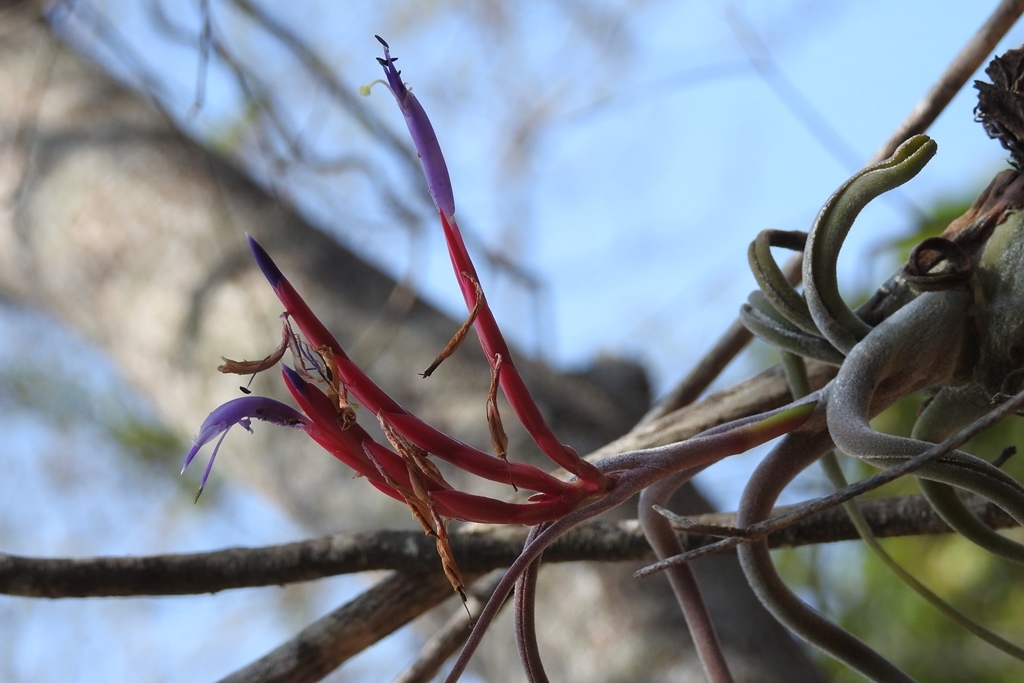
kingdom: Plantae
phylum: Tracheophyta
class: Liliopsida
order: Poales
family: Bromeliaceae
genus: Tillandsia
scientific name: Tillandsia caput-medusae
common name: Octopus plant
